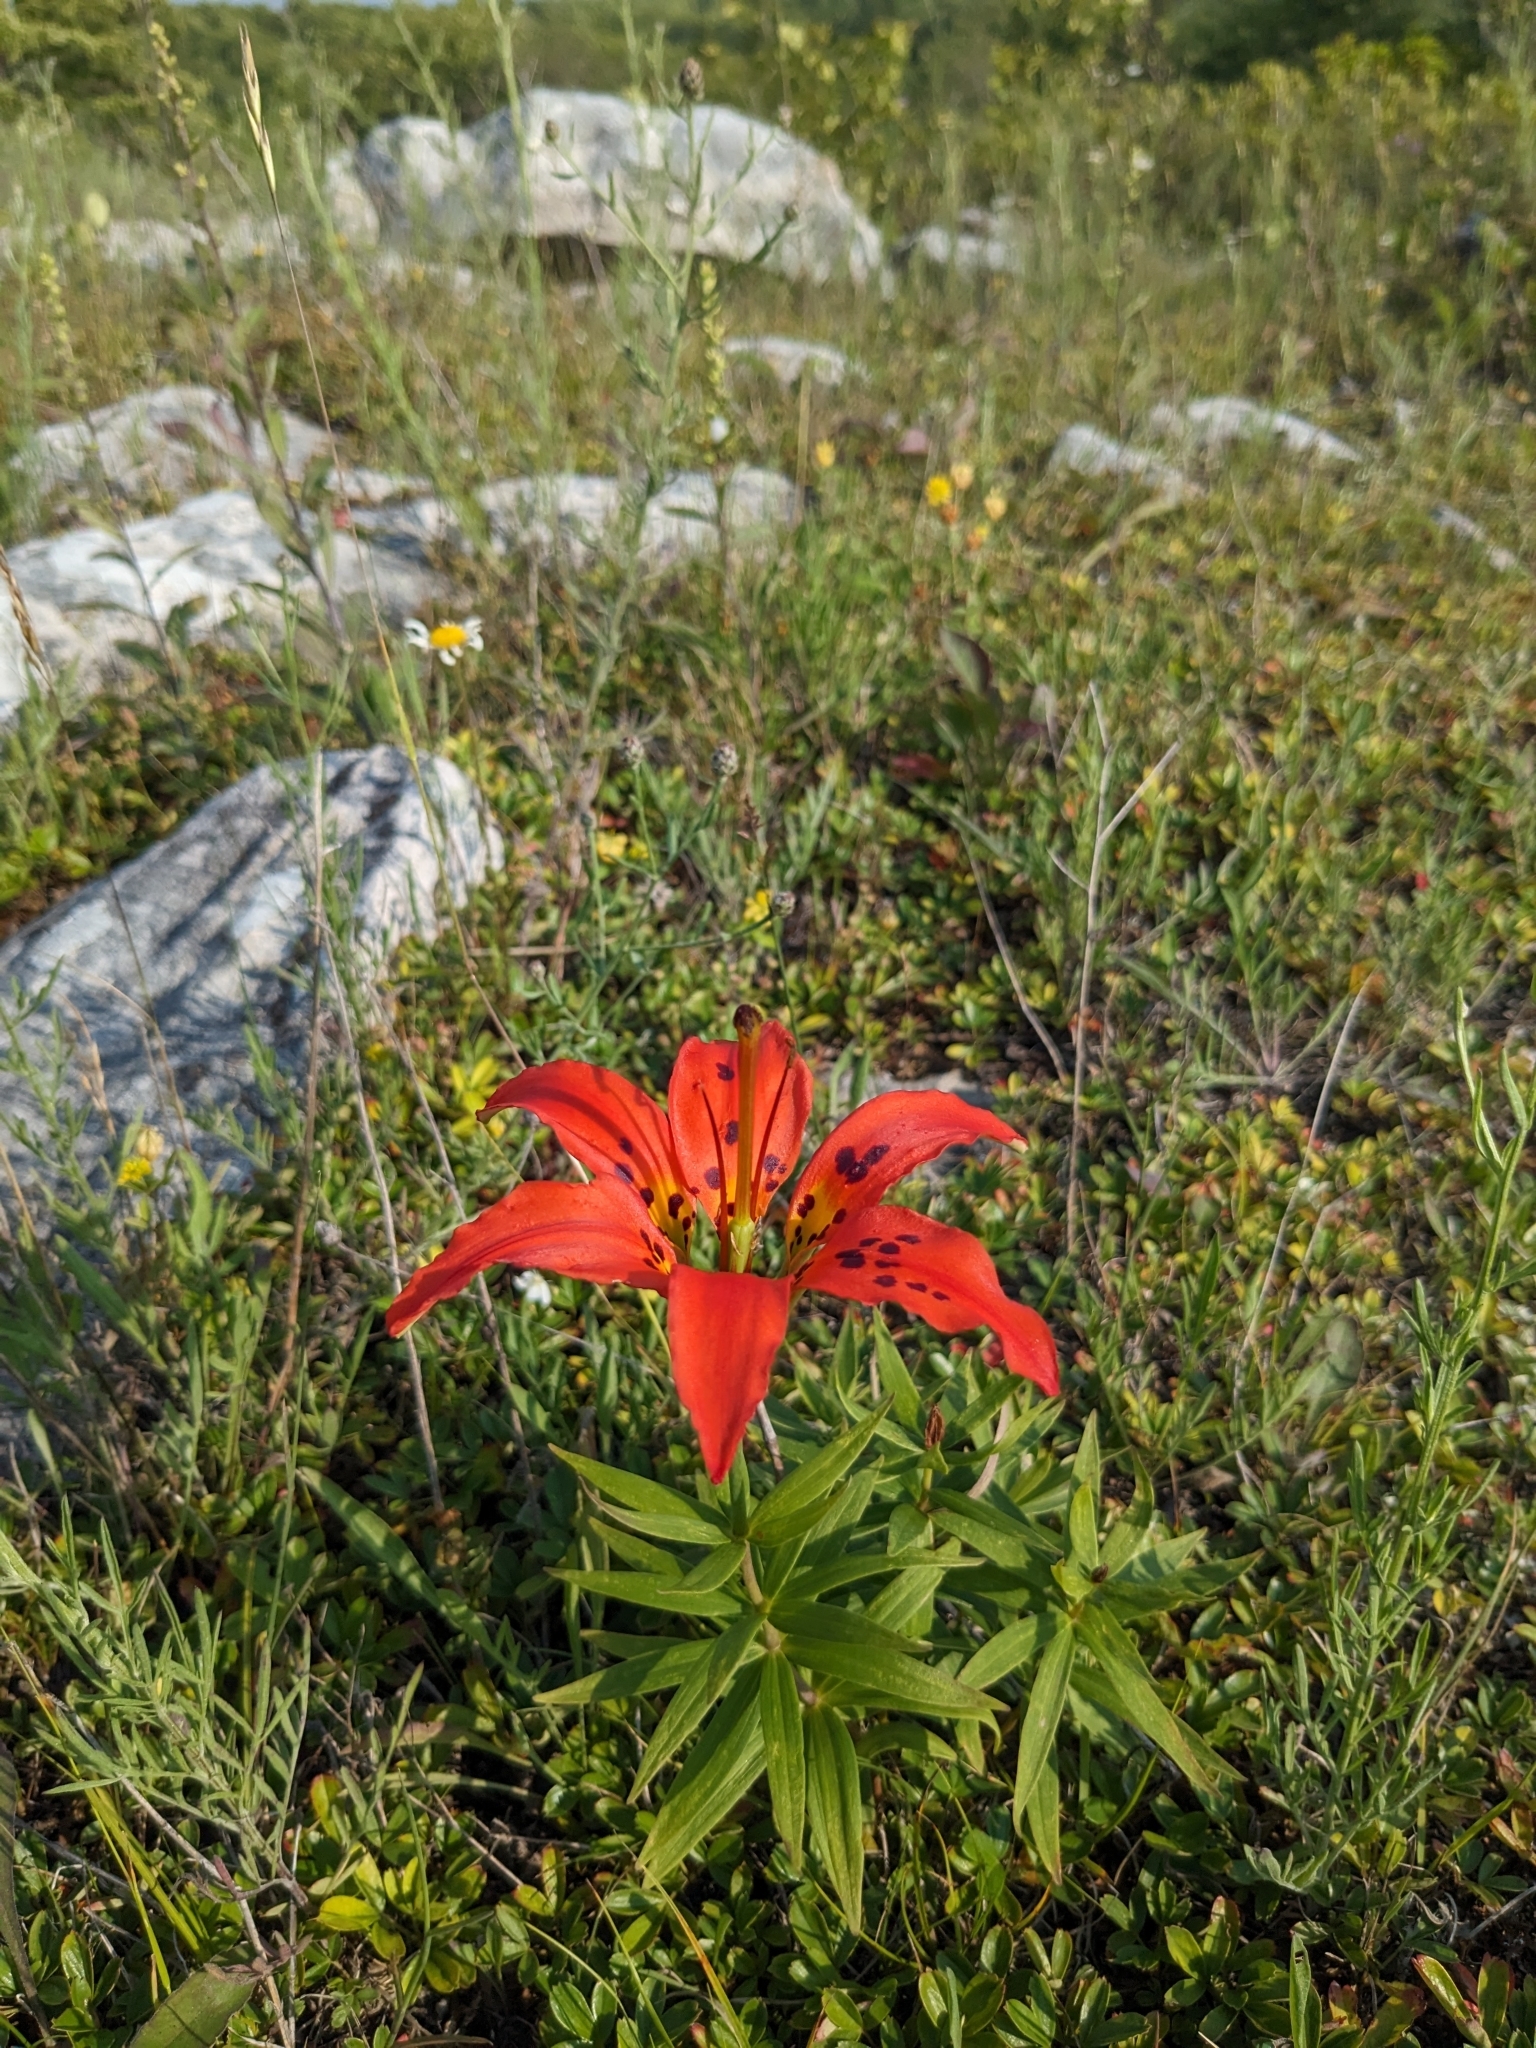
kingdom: Plantae
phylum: Tracheophyta
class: Liliopsida
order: Liliales
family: Liliaceae
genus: Lilium
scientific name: Lilium philadelphicum
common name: Red lily
